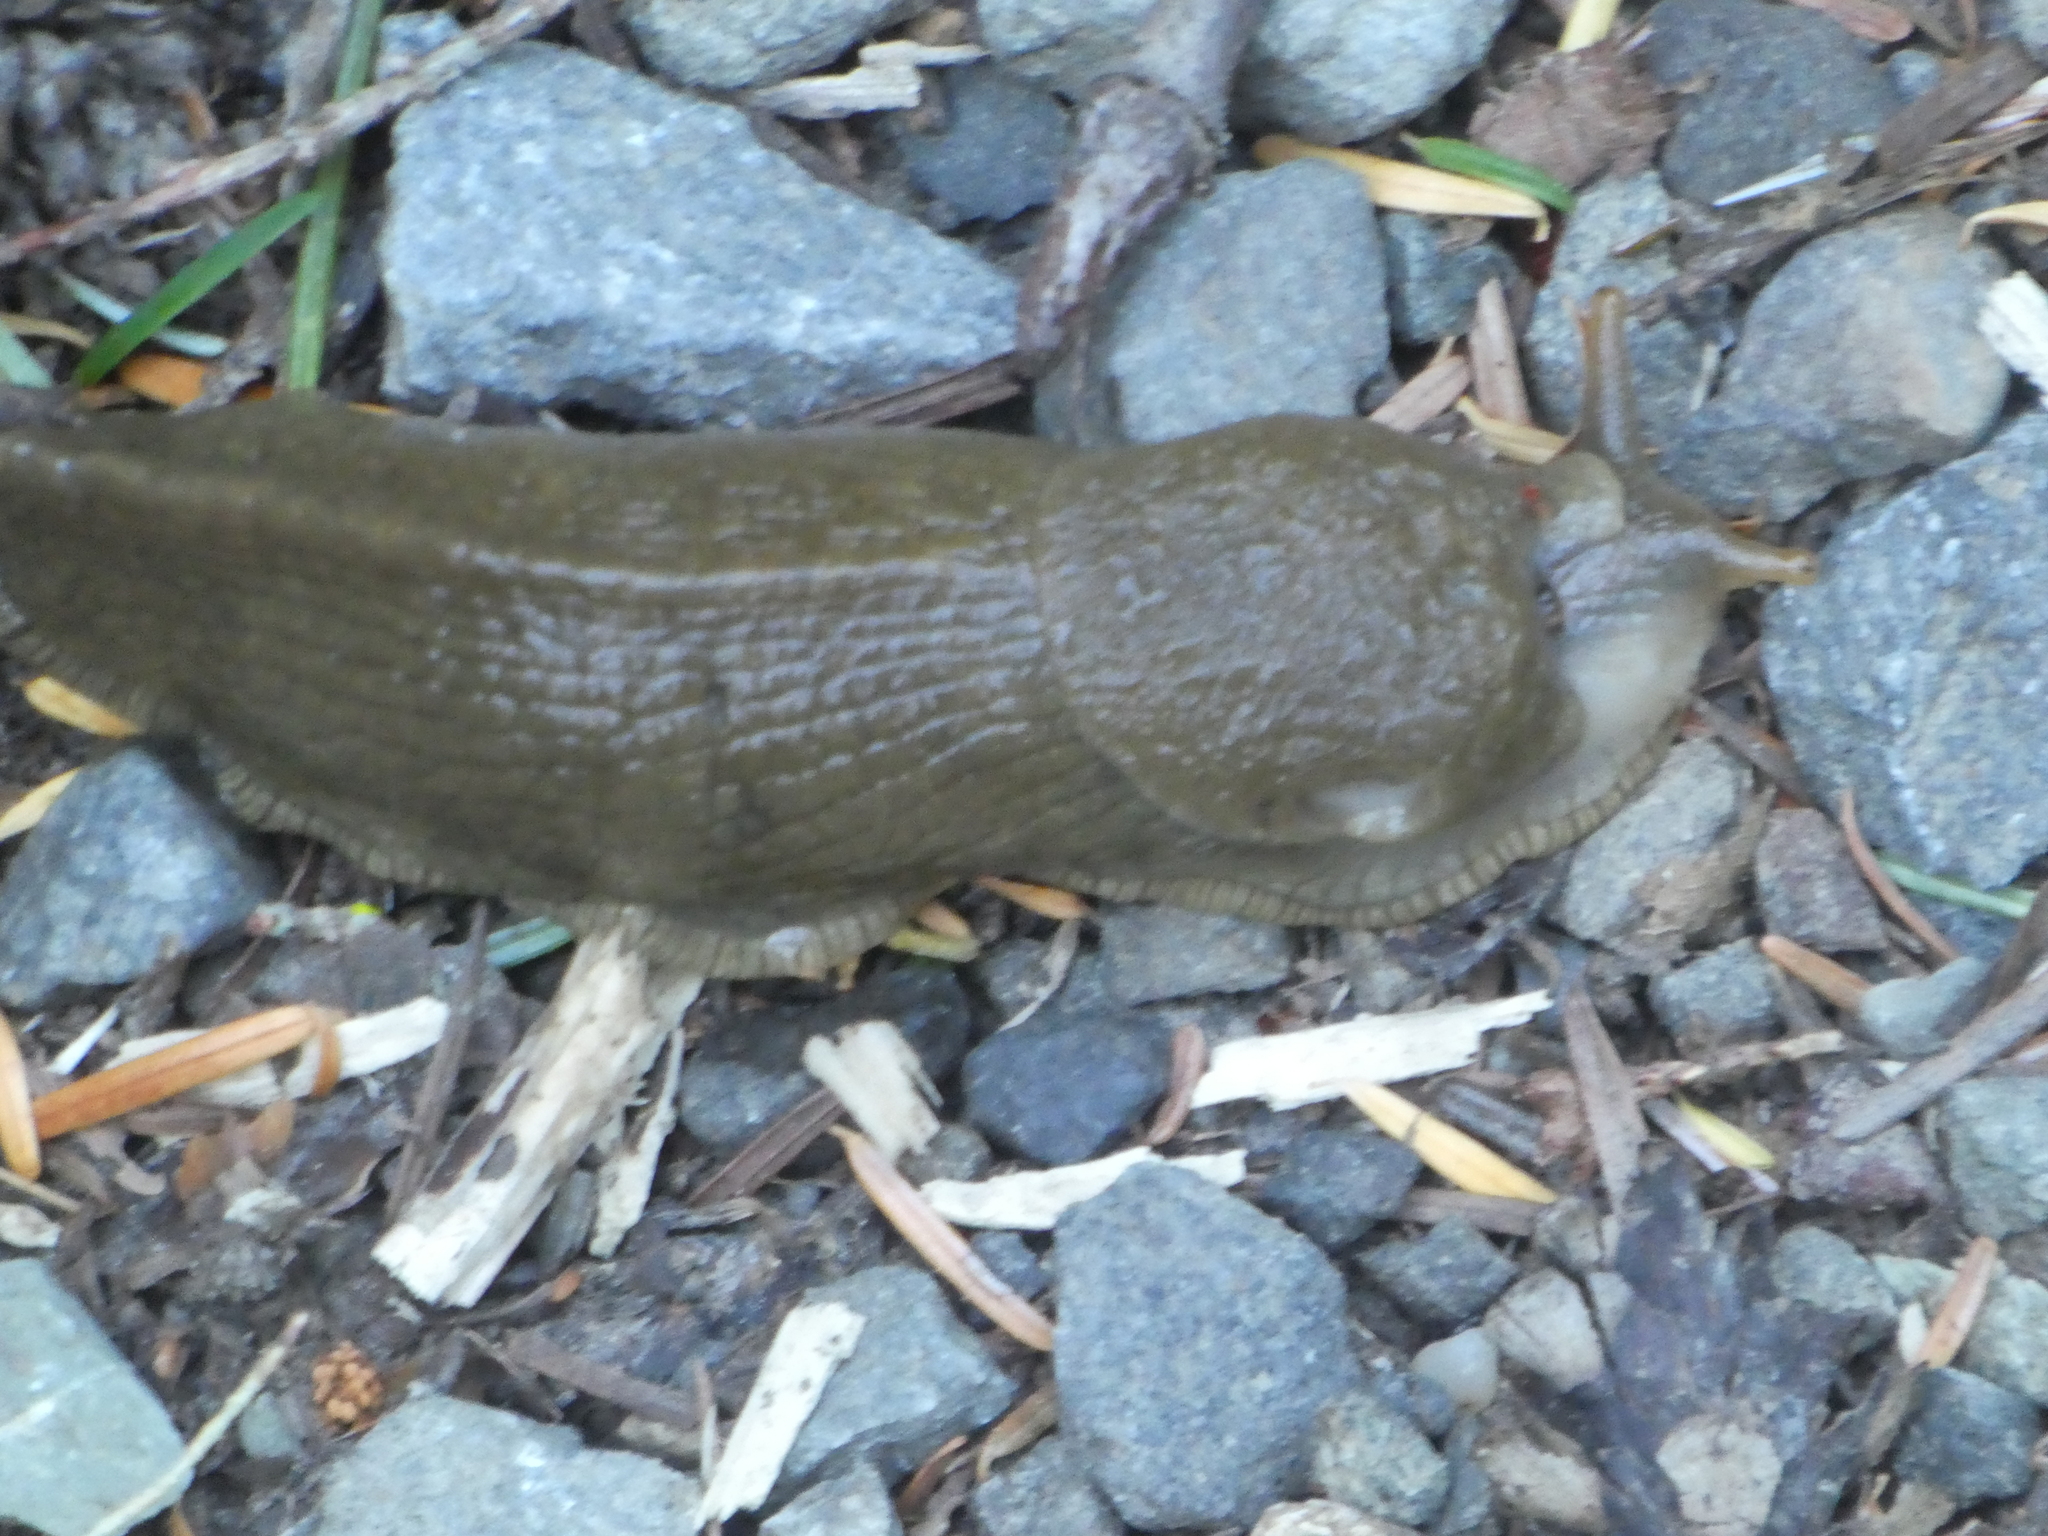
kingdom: Animalia
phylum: Mollusca
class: Gastropoda
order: Stylommatophora
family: Ariolimacidae
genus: Ariolimax
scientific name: Ariolimax columbianus
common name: Pacific banana slug
